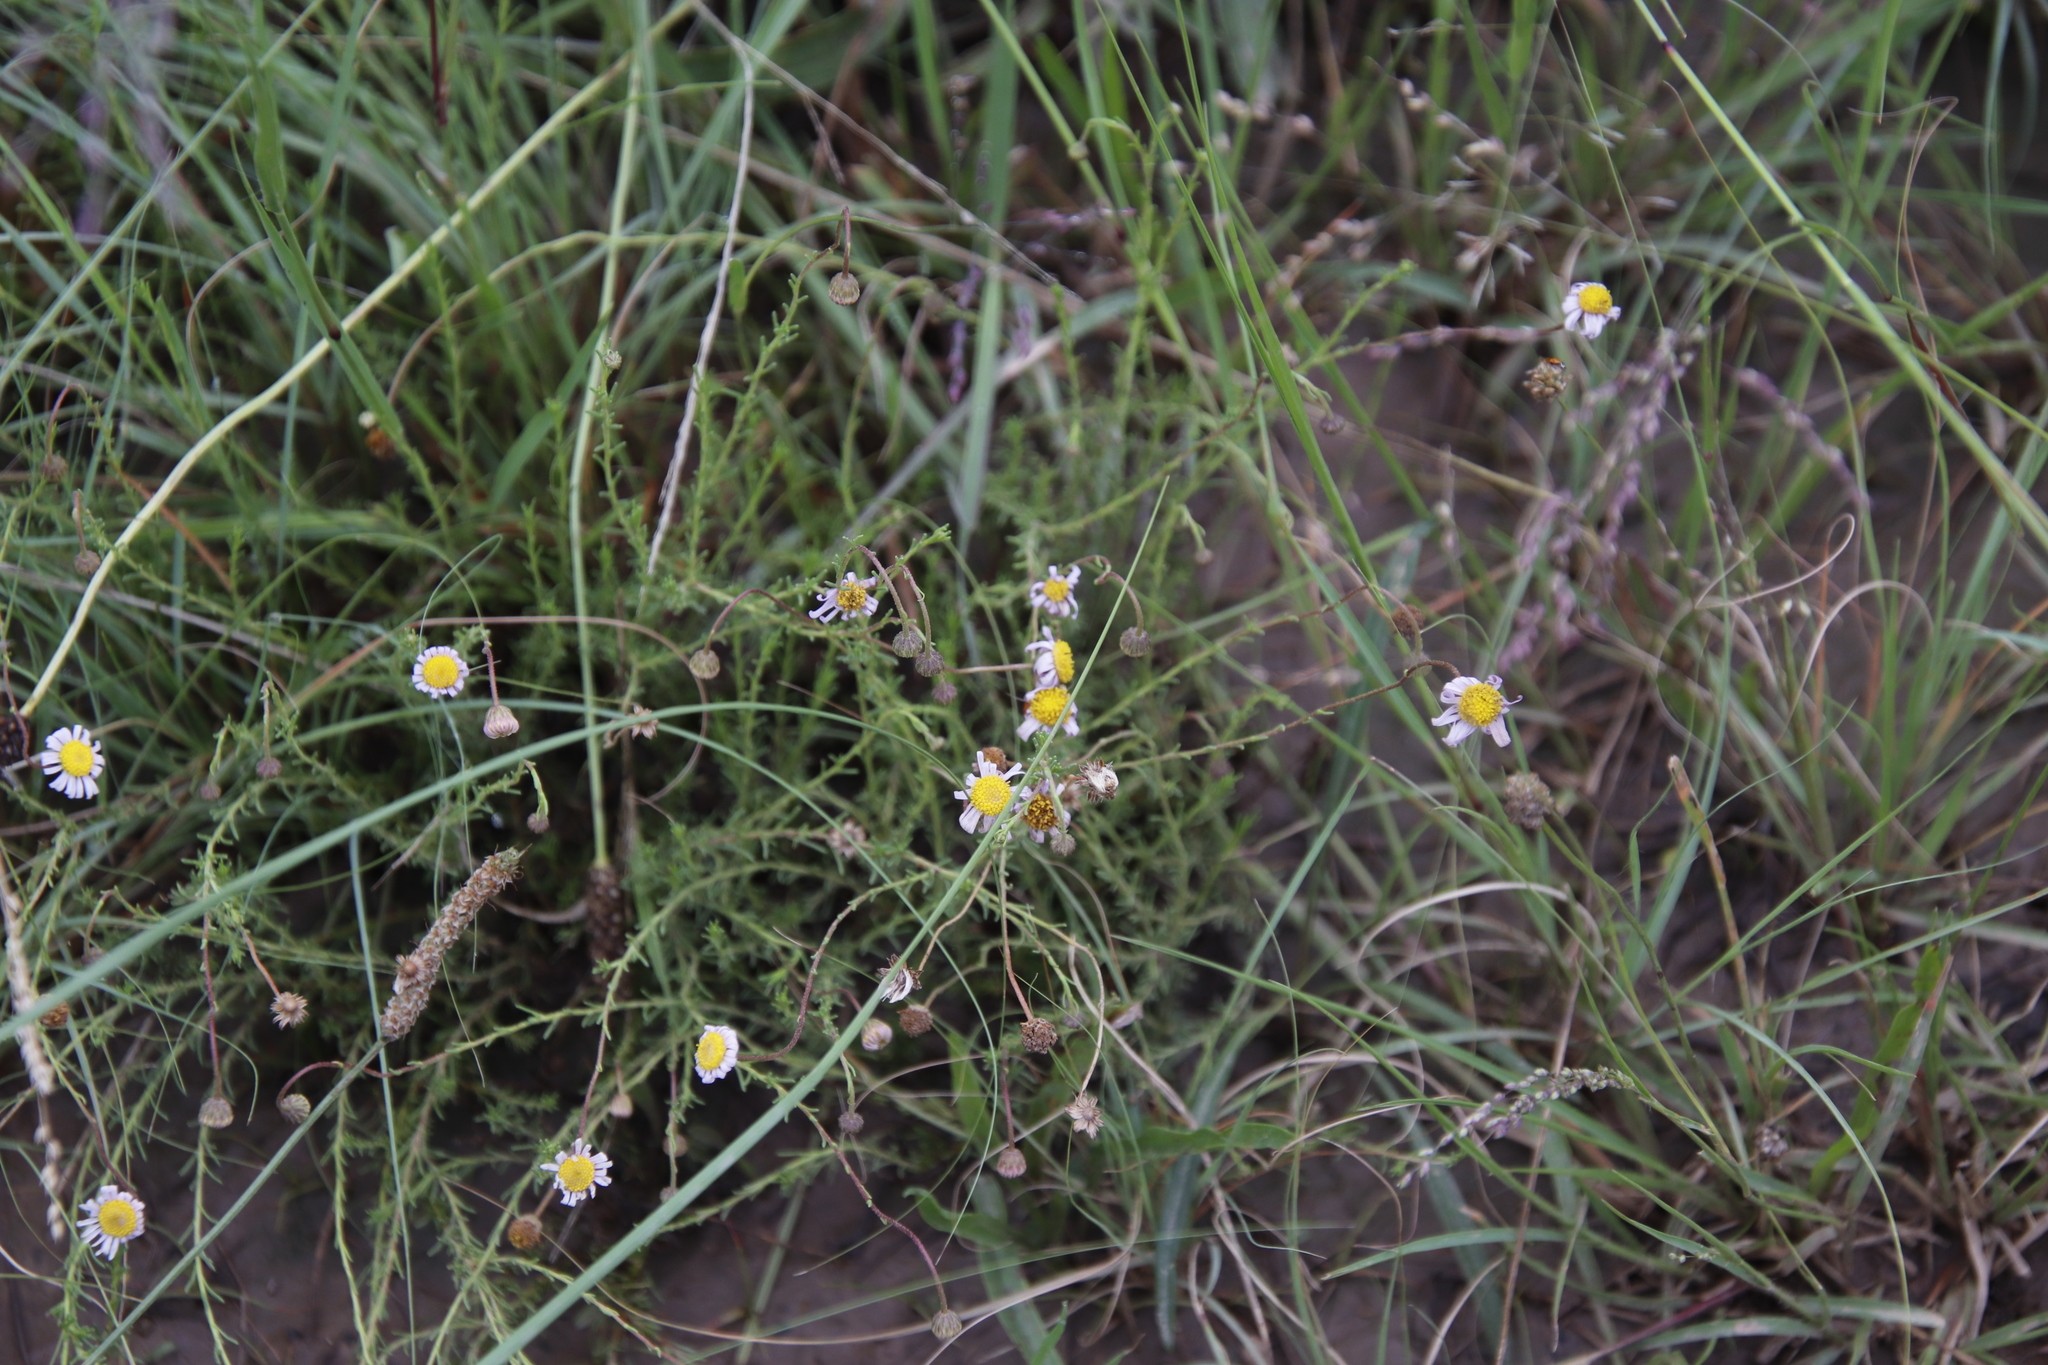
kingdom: Plantae
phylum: Tracheophyta
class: Magnoliopsida
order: Asterales
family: Asteraceae
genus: Felicia
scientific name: Felicia muricata
